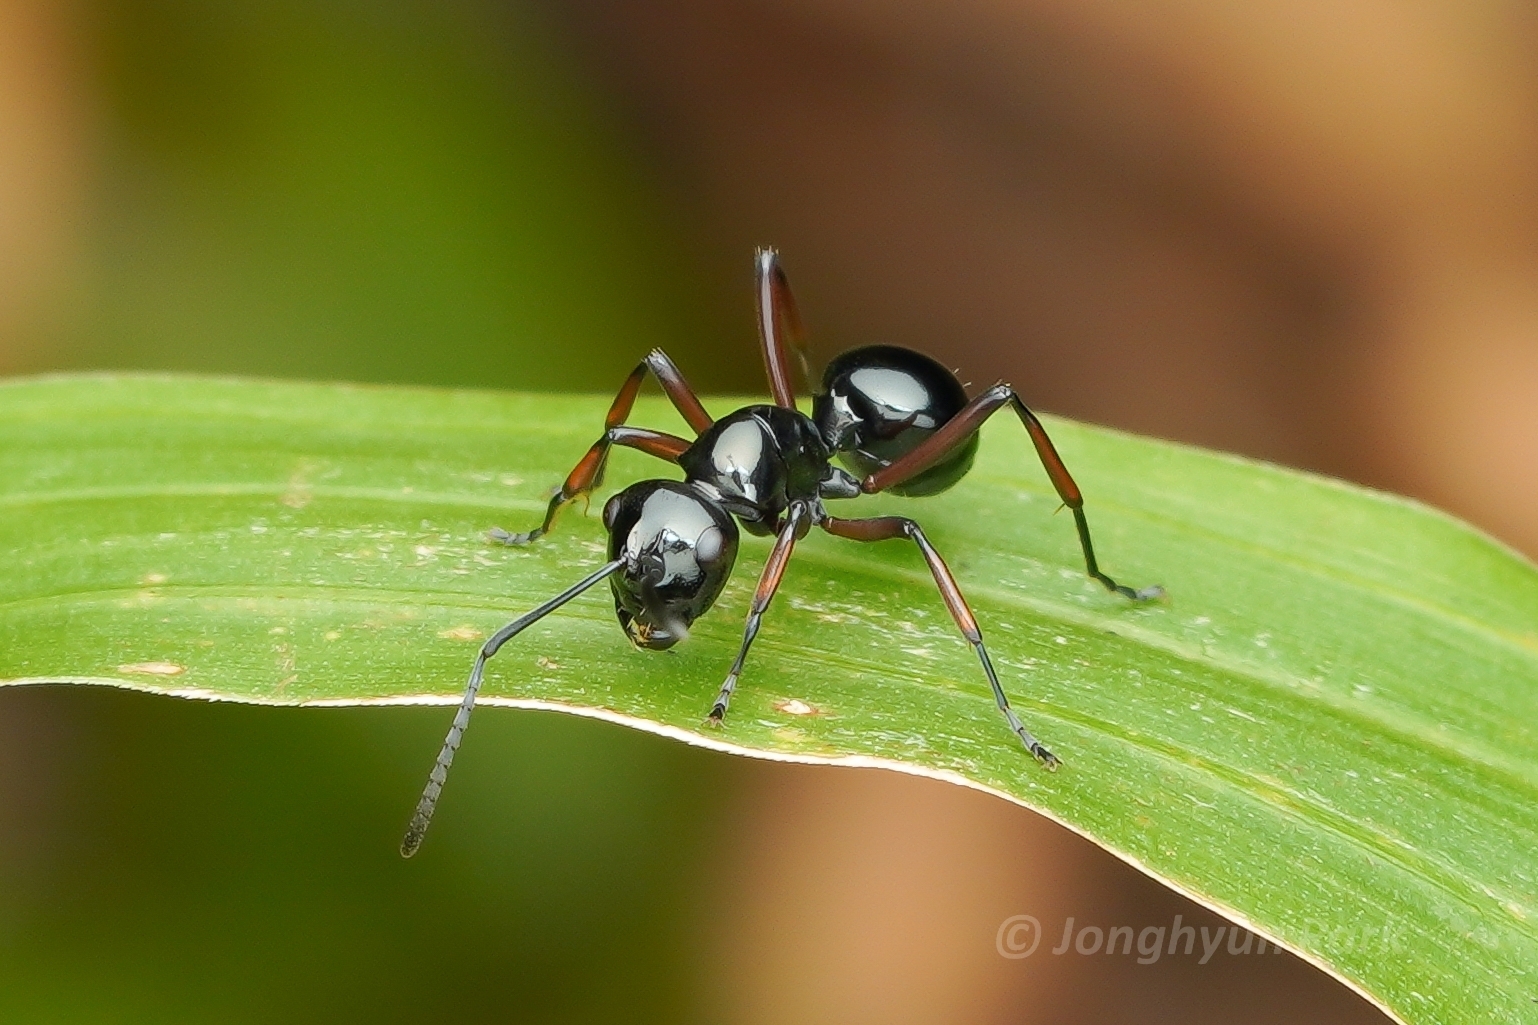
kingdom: Animalia
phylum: Arthropoda
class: Insecta
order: Hymenoptera
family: Formicidae
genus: Polyrhachis
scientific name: Polyrhachis rastellata
